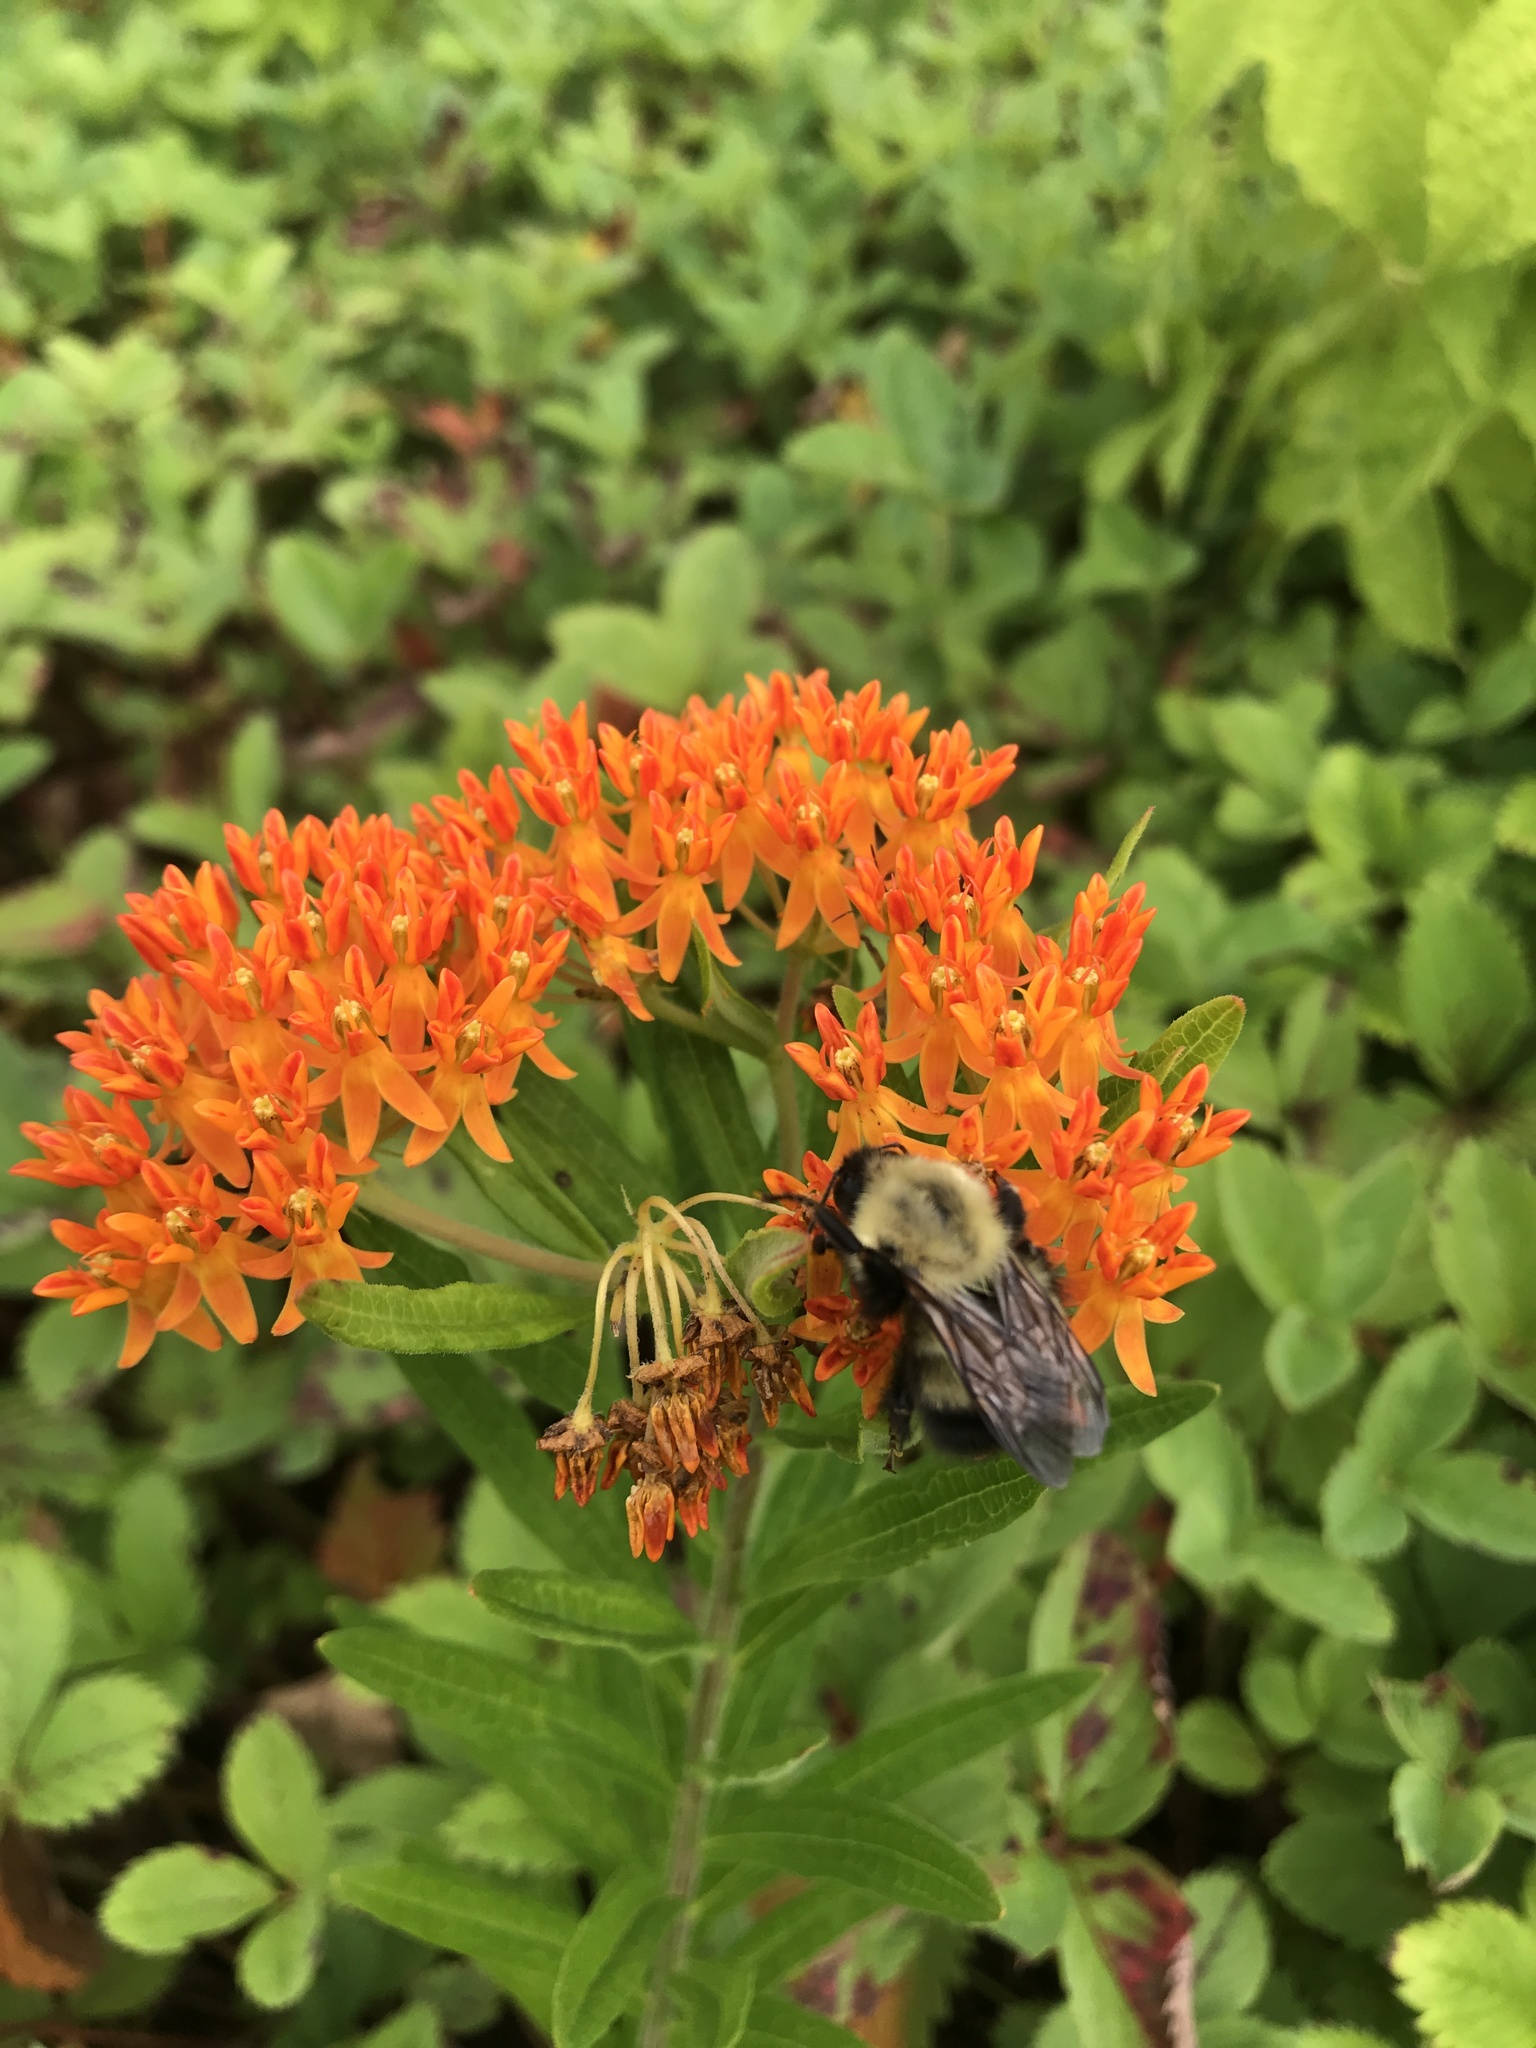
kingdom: Plantae
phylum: Tracheophyta
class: Magnoliopsida
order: Gentianales
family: Apocynaceae
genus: Asclepias
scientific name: Asclepias tuberosa
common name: Butterfly milkweed
